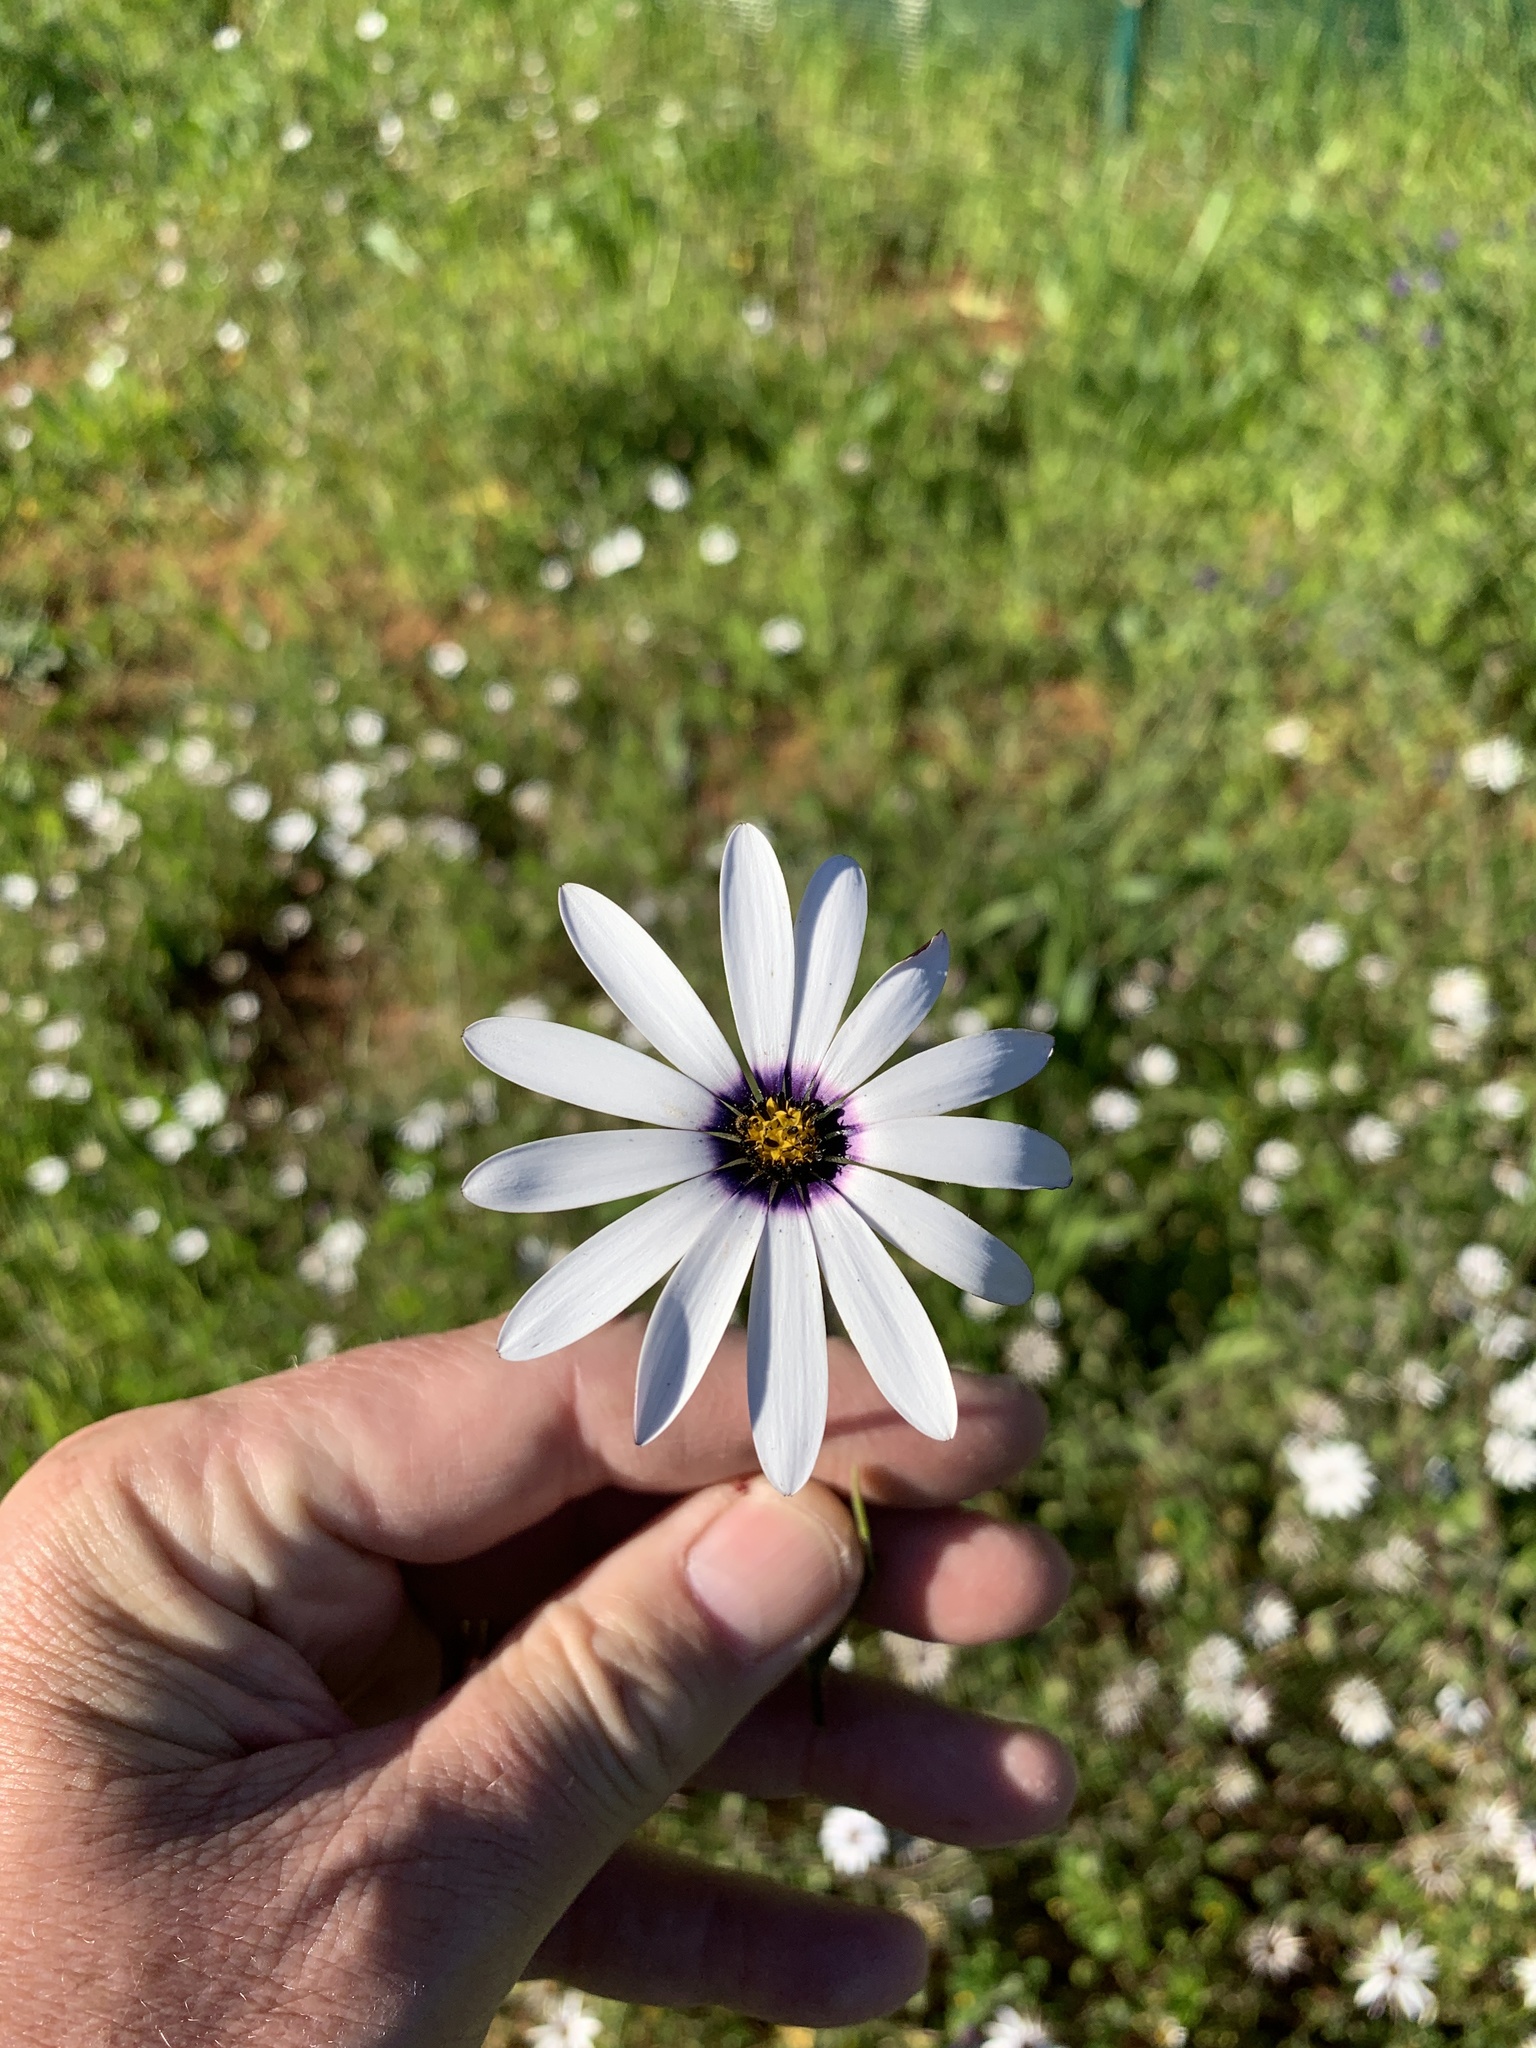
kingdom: Plantae
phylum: Tracheophyta
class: Magnoliopsida
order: Asterales
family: Asteraceae
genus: Dimorphotheca
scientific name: Dimorphotheca pluvialis
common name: Weather prophet
